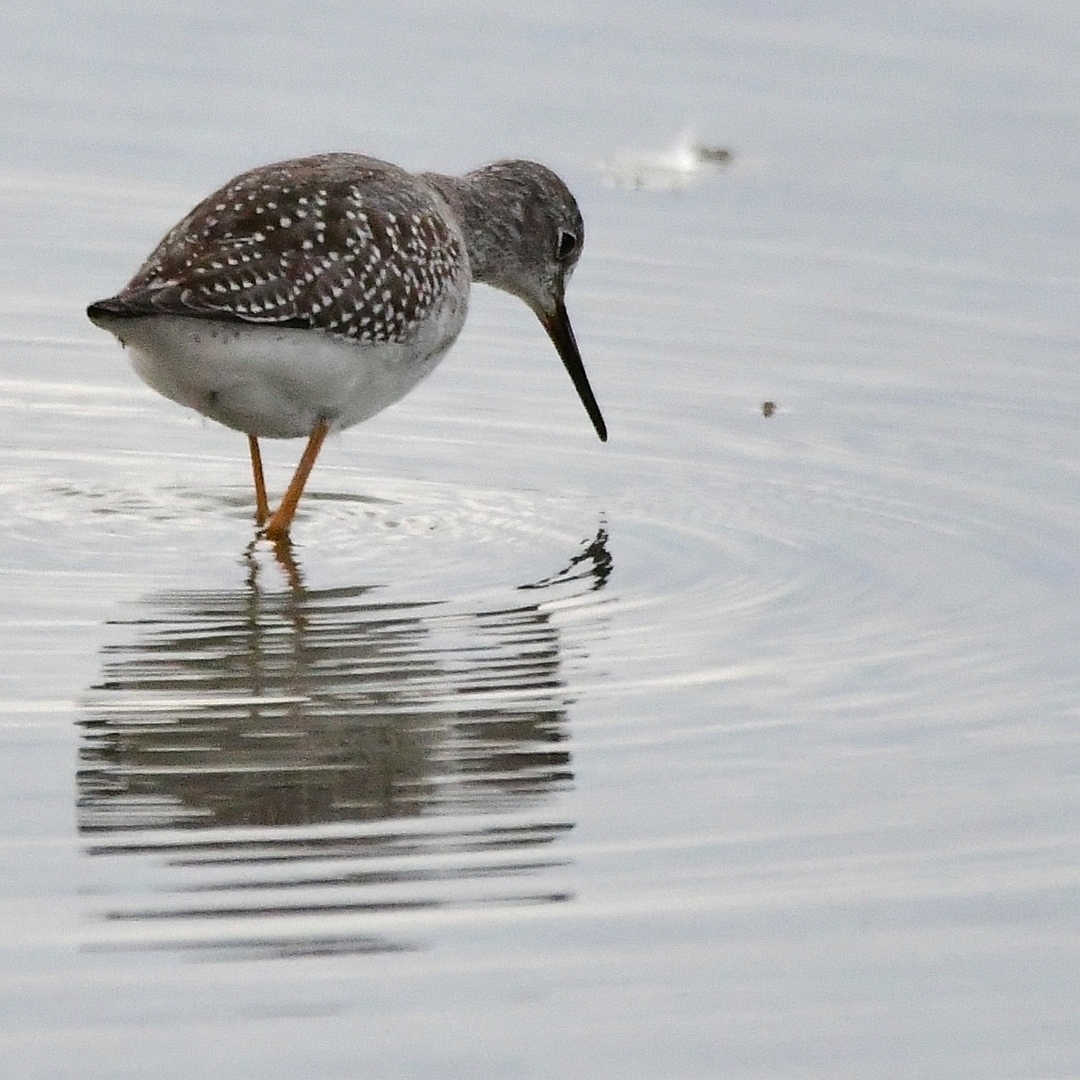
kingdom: Animalia
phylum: Chordata
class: Aves
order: Charadriiformes
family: Scolopacidae
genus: Tringa
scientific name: Tringa flavipes
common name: Lesser yellowlegs
